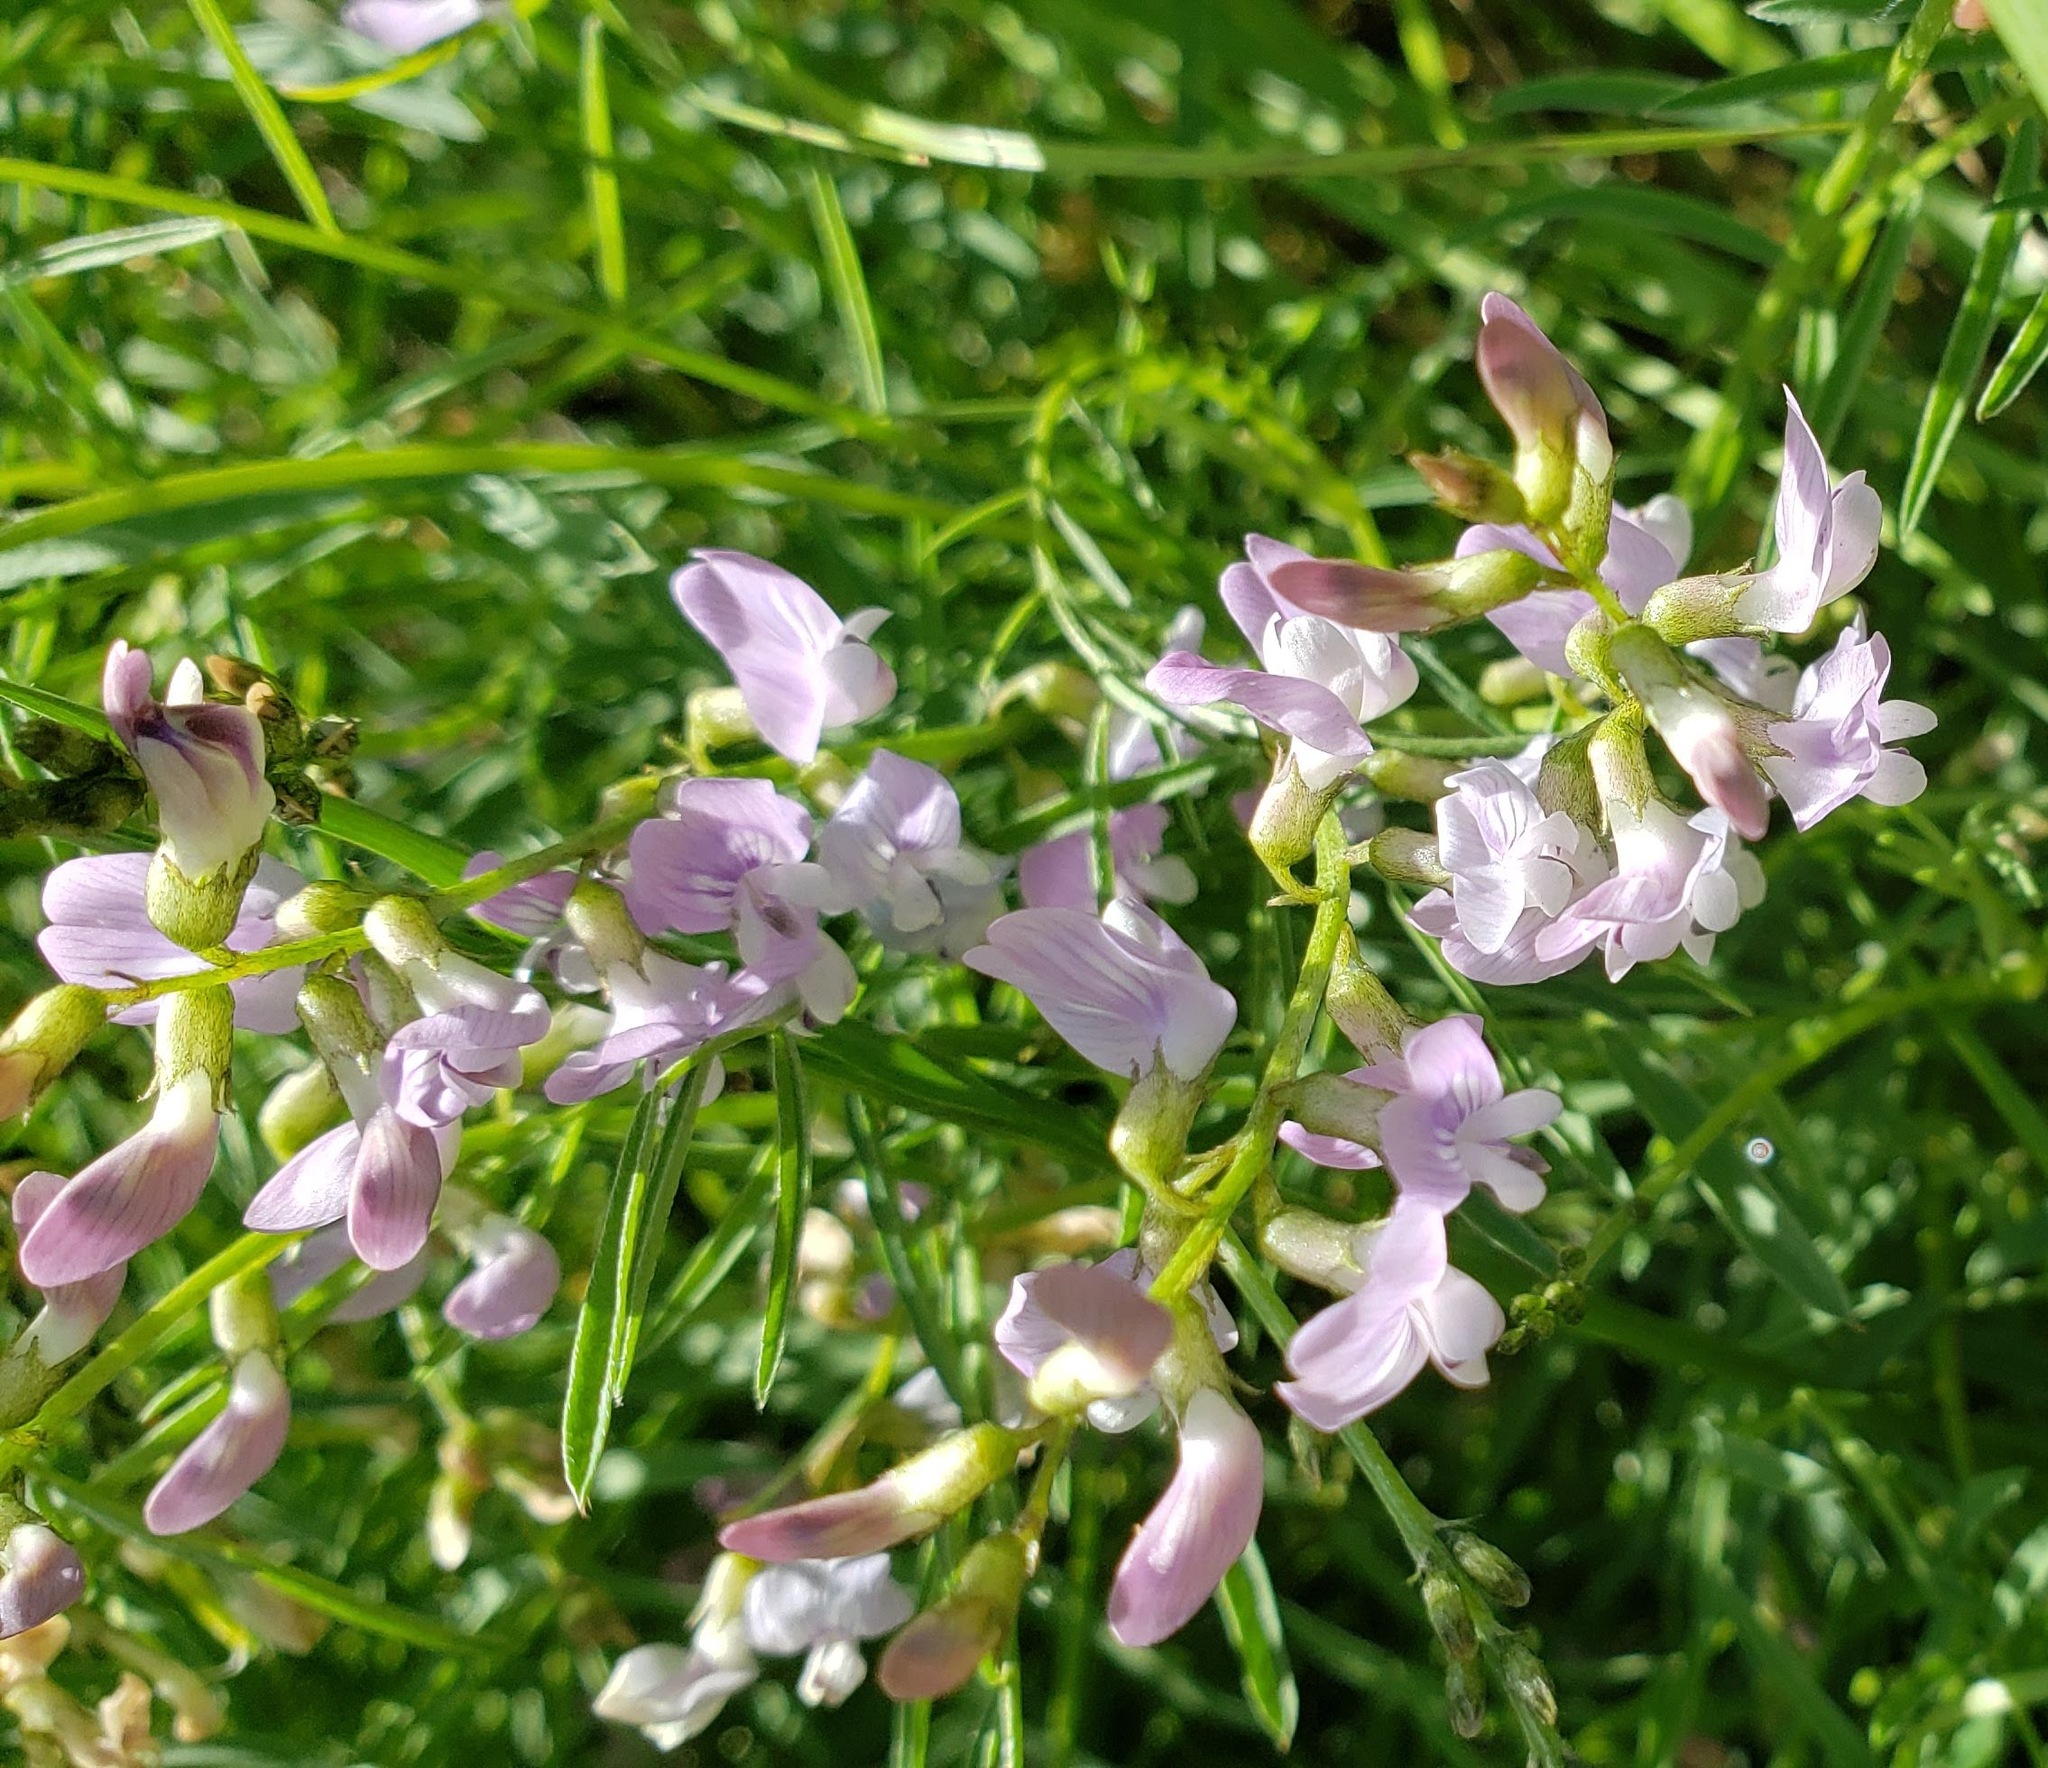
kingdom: Plantae
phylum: Tracheophyta
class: Magnoliopsida
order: Fabales
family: Fabaceae
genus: Astragalus
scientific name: Astragalus miser
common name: Timber milkvetch
